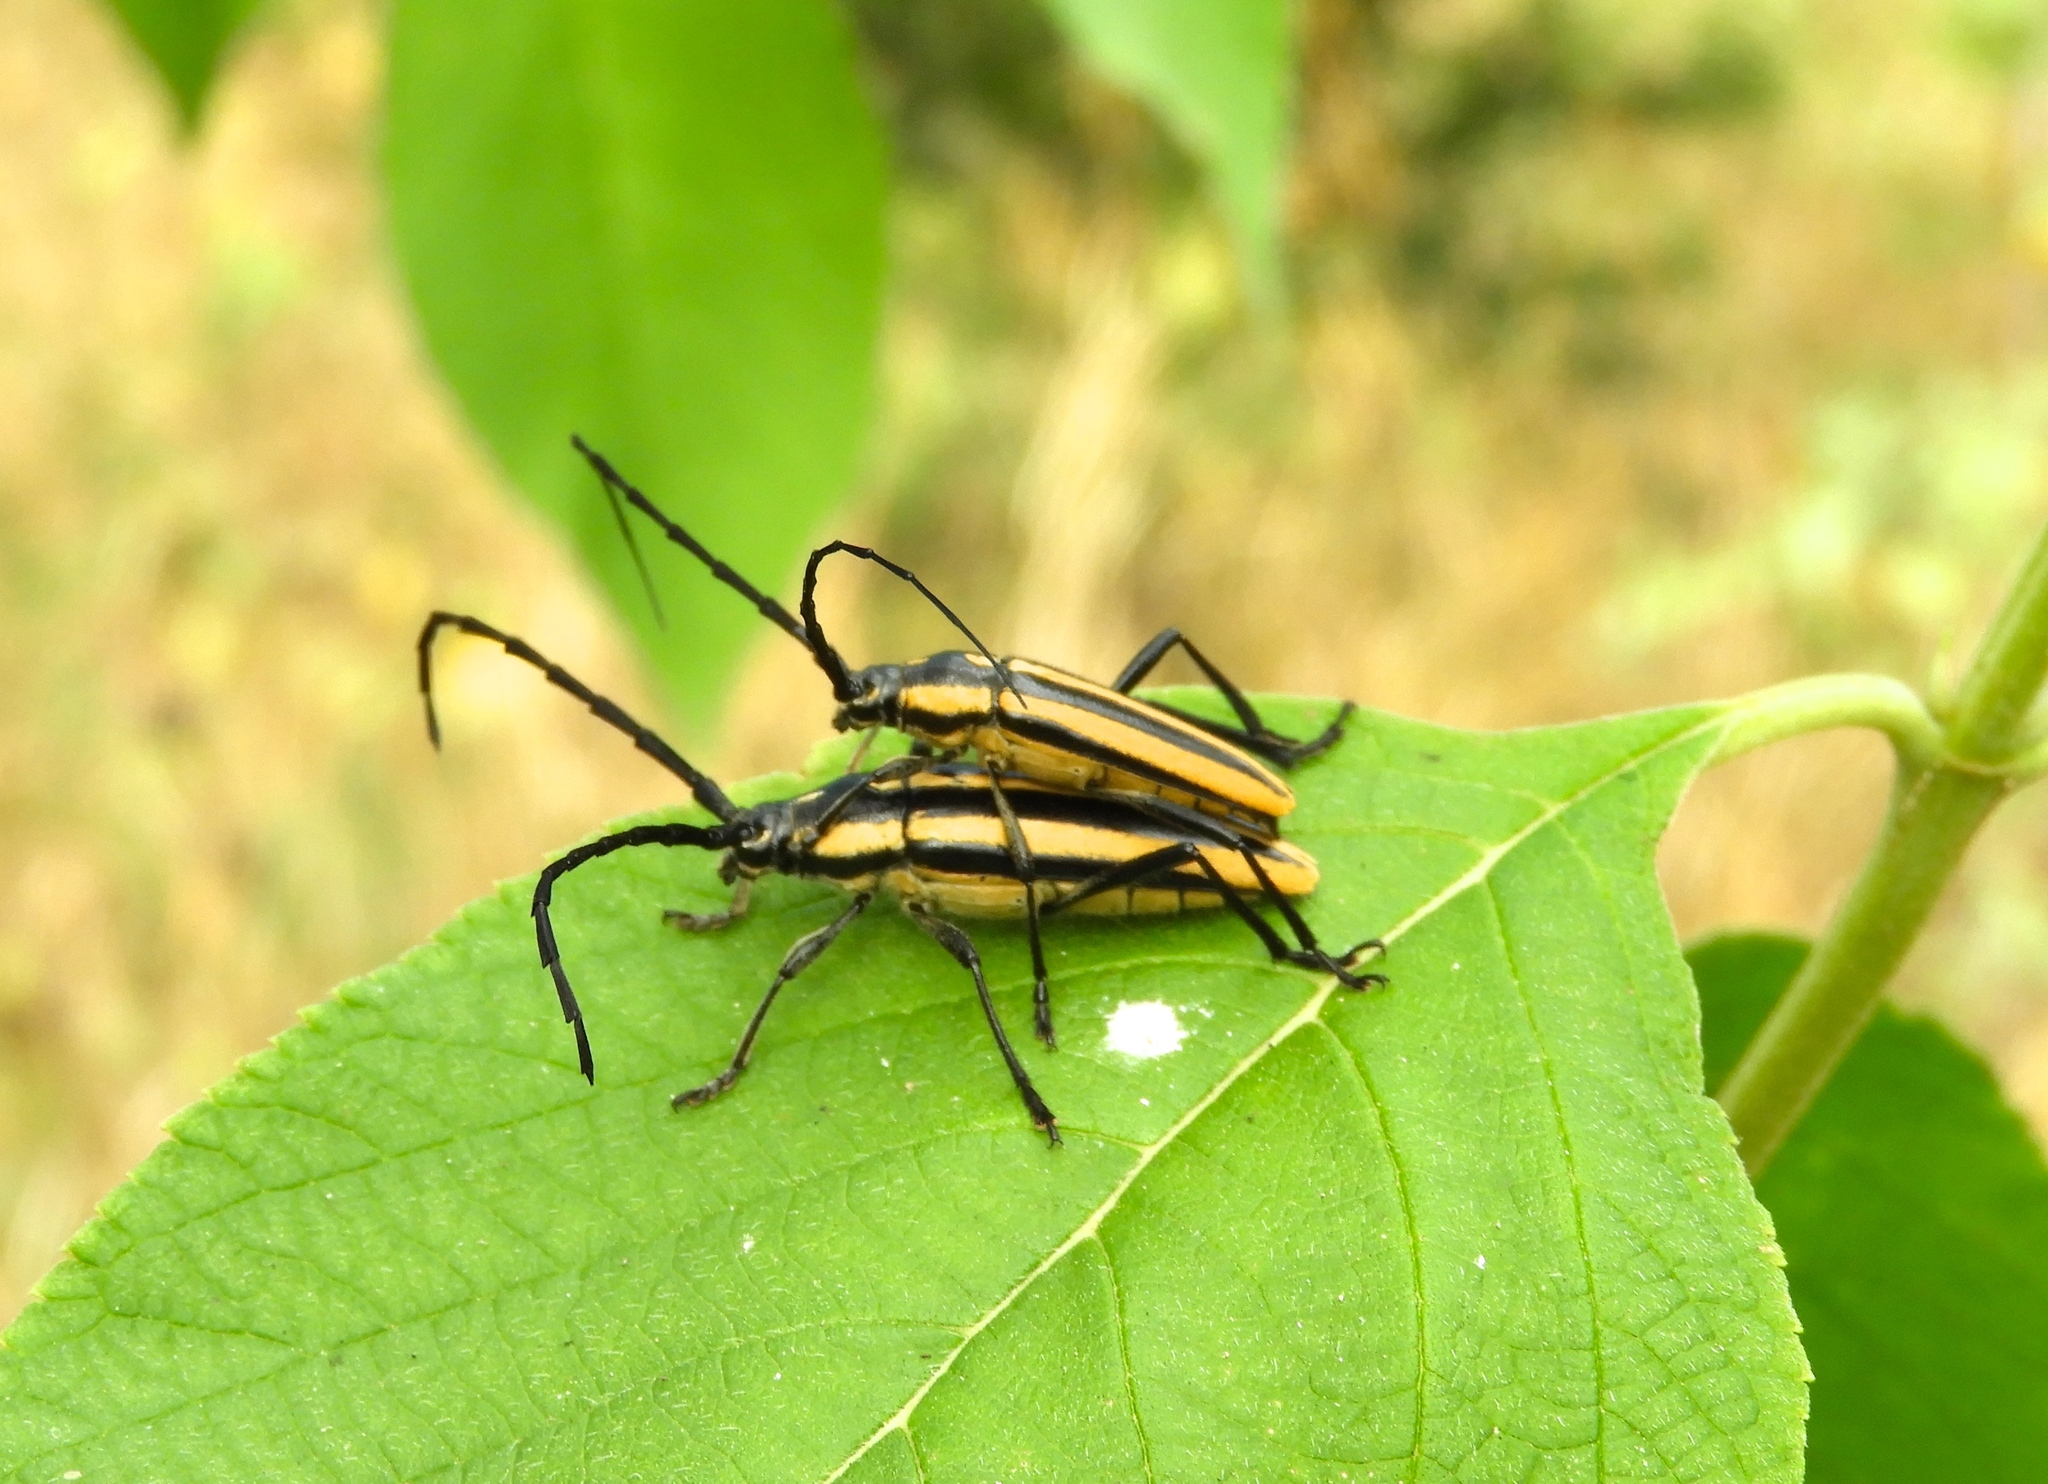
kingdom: Animalia
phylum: Arthropoda
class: Insecta
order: Coleoptera
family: Cerambycidae
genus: Sphaenothecus
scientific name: Sphaenothecus trilineatus
